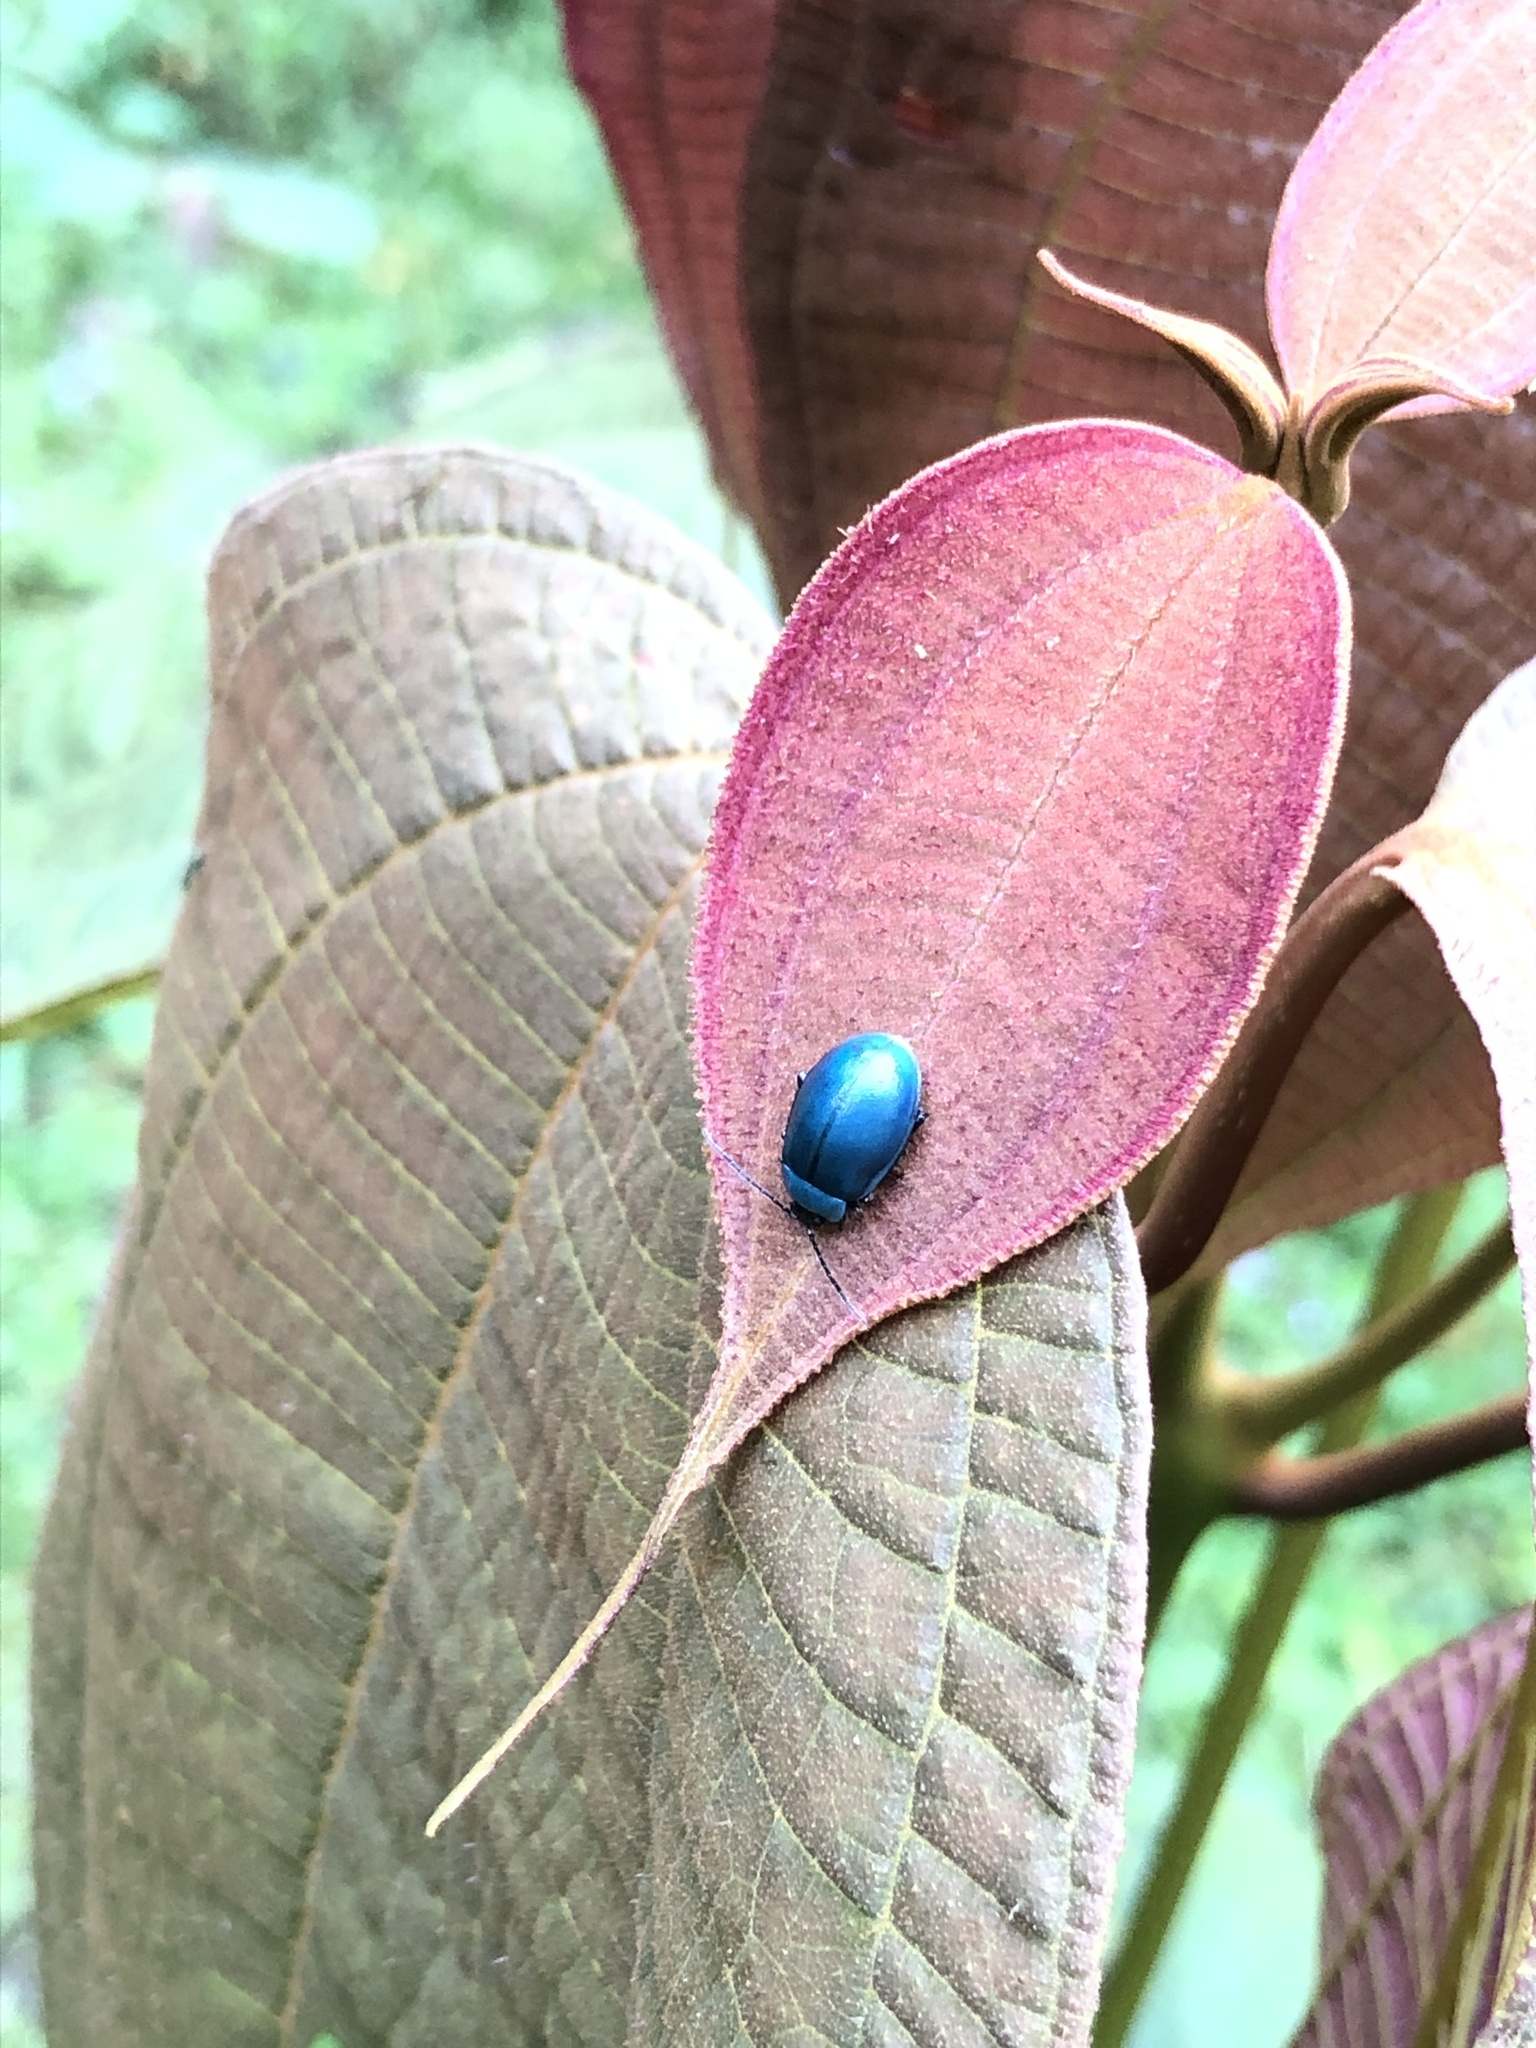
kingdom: Animalia
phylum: Arthropoda
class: Insecta
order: Coleoptera
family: Chrysomelidae
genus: Aspicela
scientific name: Aspicela
